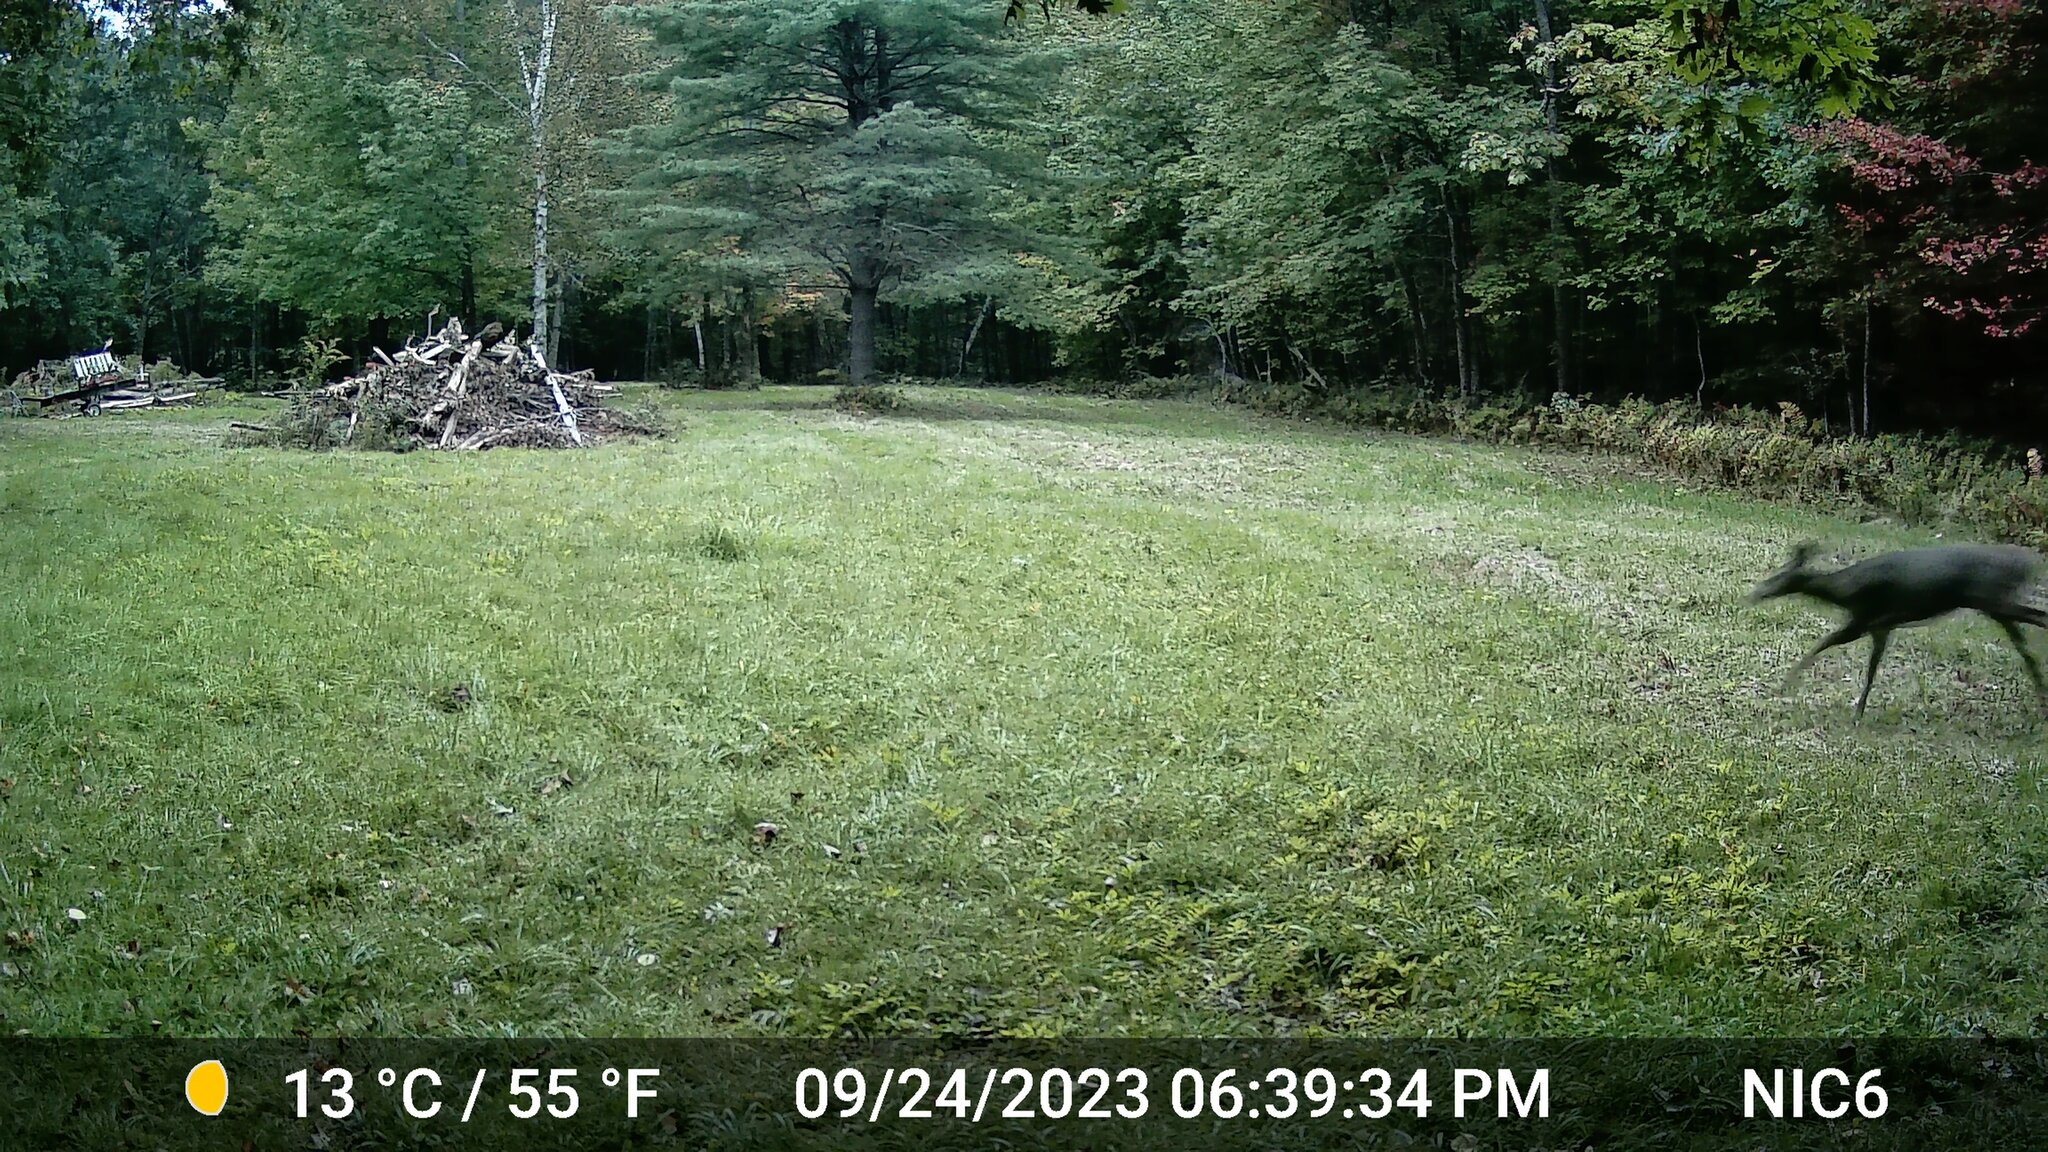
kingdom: Animalia
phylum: Chordata
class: Mammalia
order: Artiodactyla
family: Cervidae
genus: Odocoileus
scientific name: Odocoileus virginianus
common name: White-tailed deer
